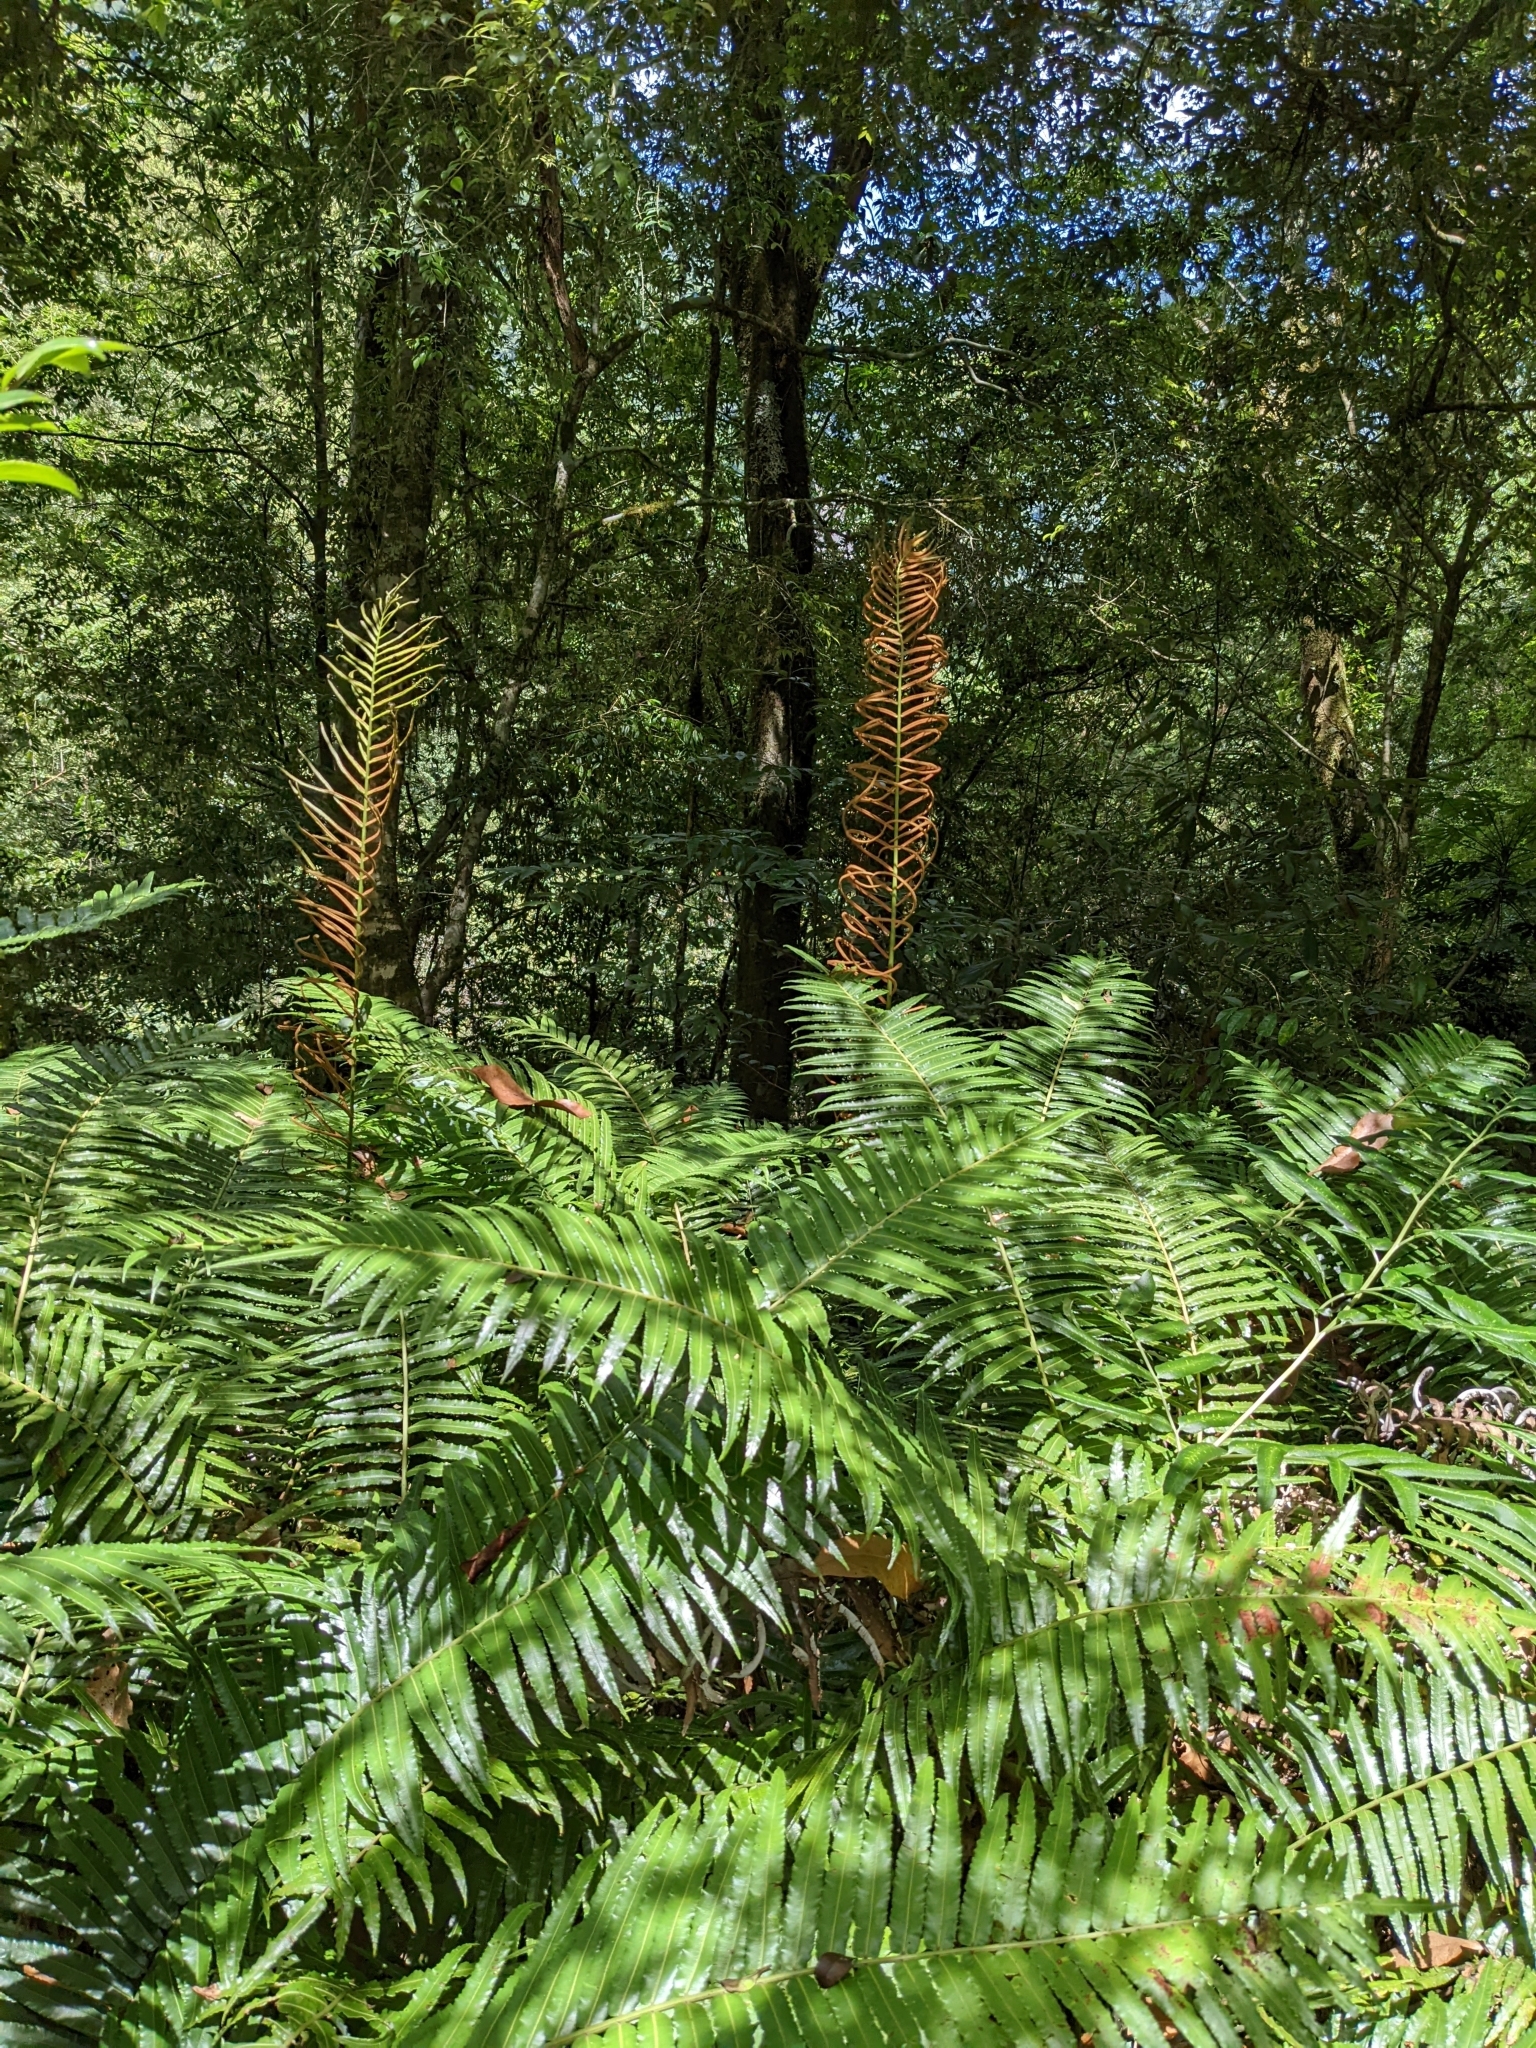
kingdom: Plantae
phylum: Tracheophyta
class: Polypodiopsida
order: Cyatheales
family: Plagiogyriaceae
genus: Plagiogyria
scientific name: Plagiogyria glauca
